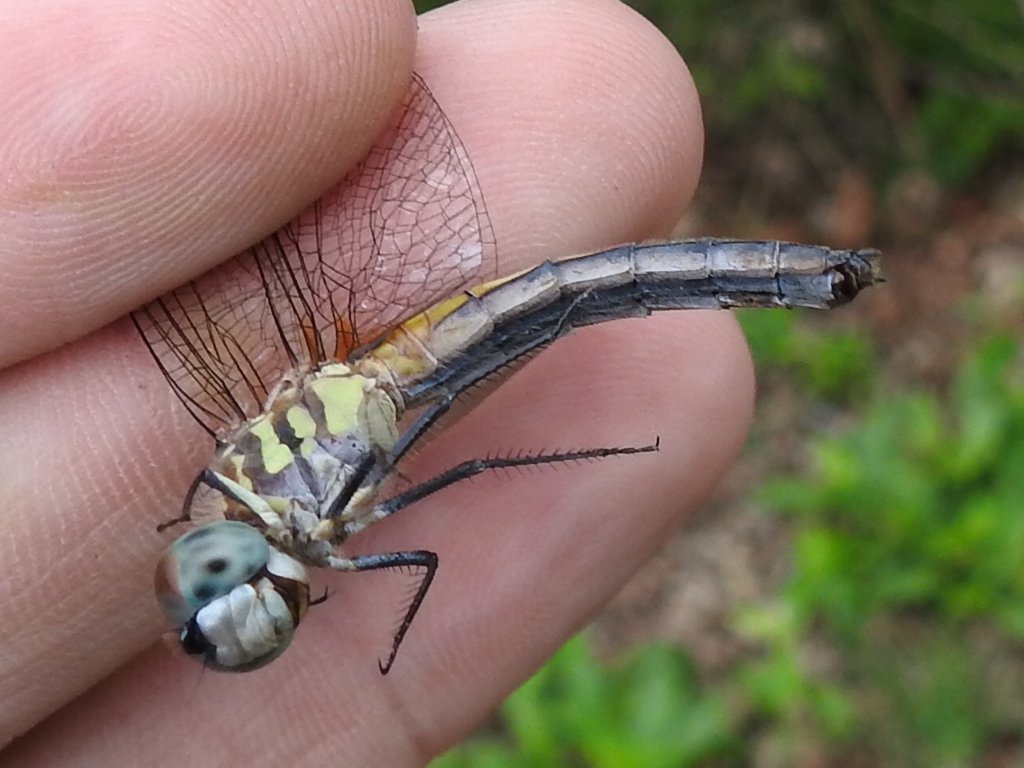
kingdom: Animalia
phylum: Arthropoda
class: Insecta
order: Odonata
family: Libellulidae
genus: Pachydiplax
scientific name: Pachydiplax longipennis
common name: Blue dasher
